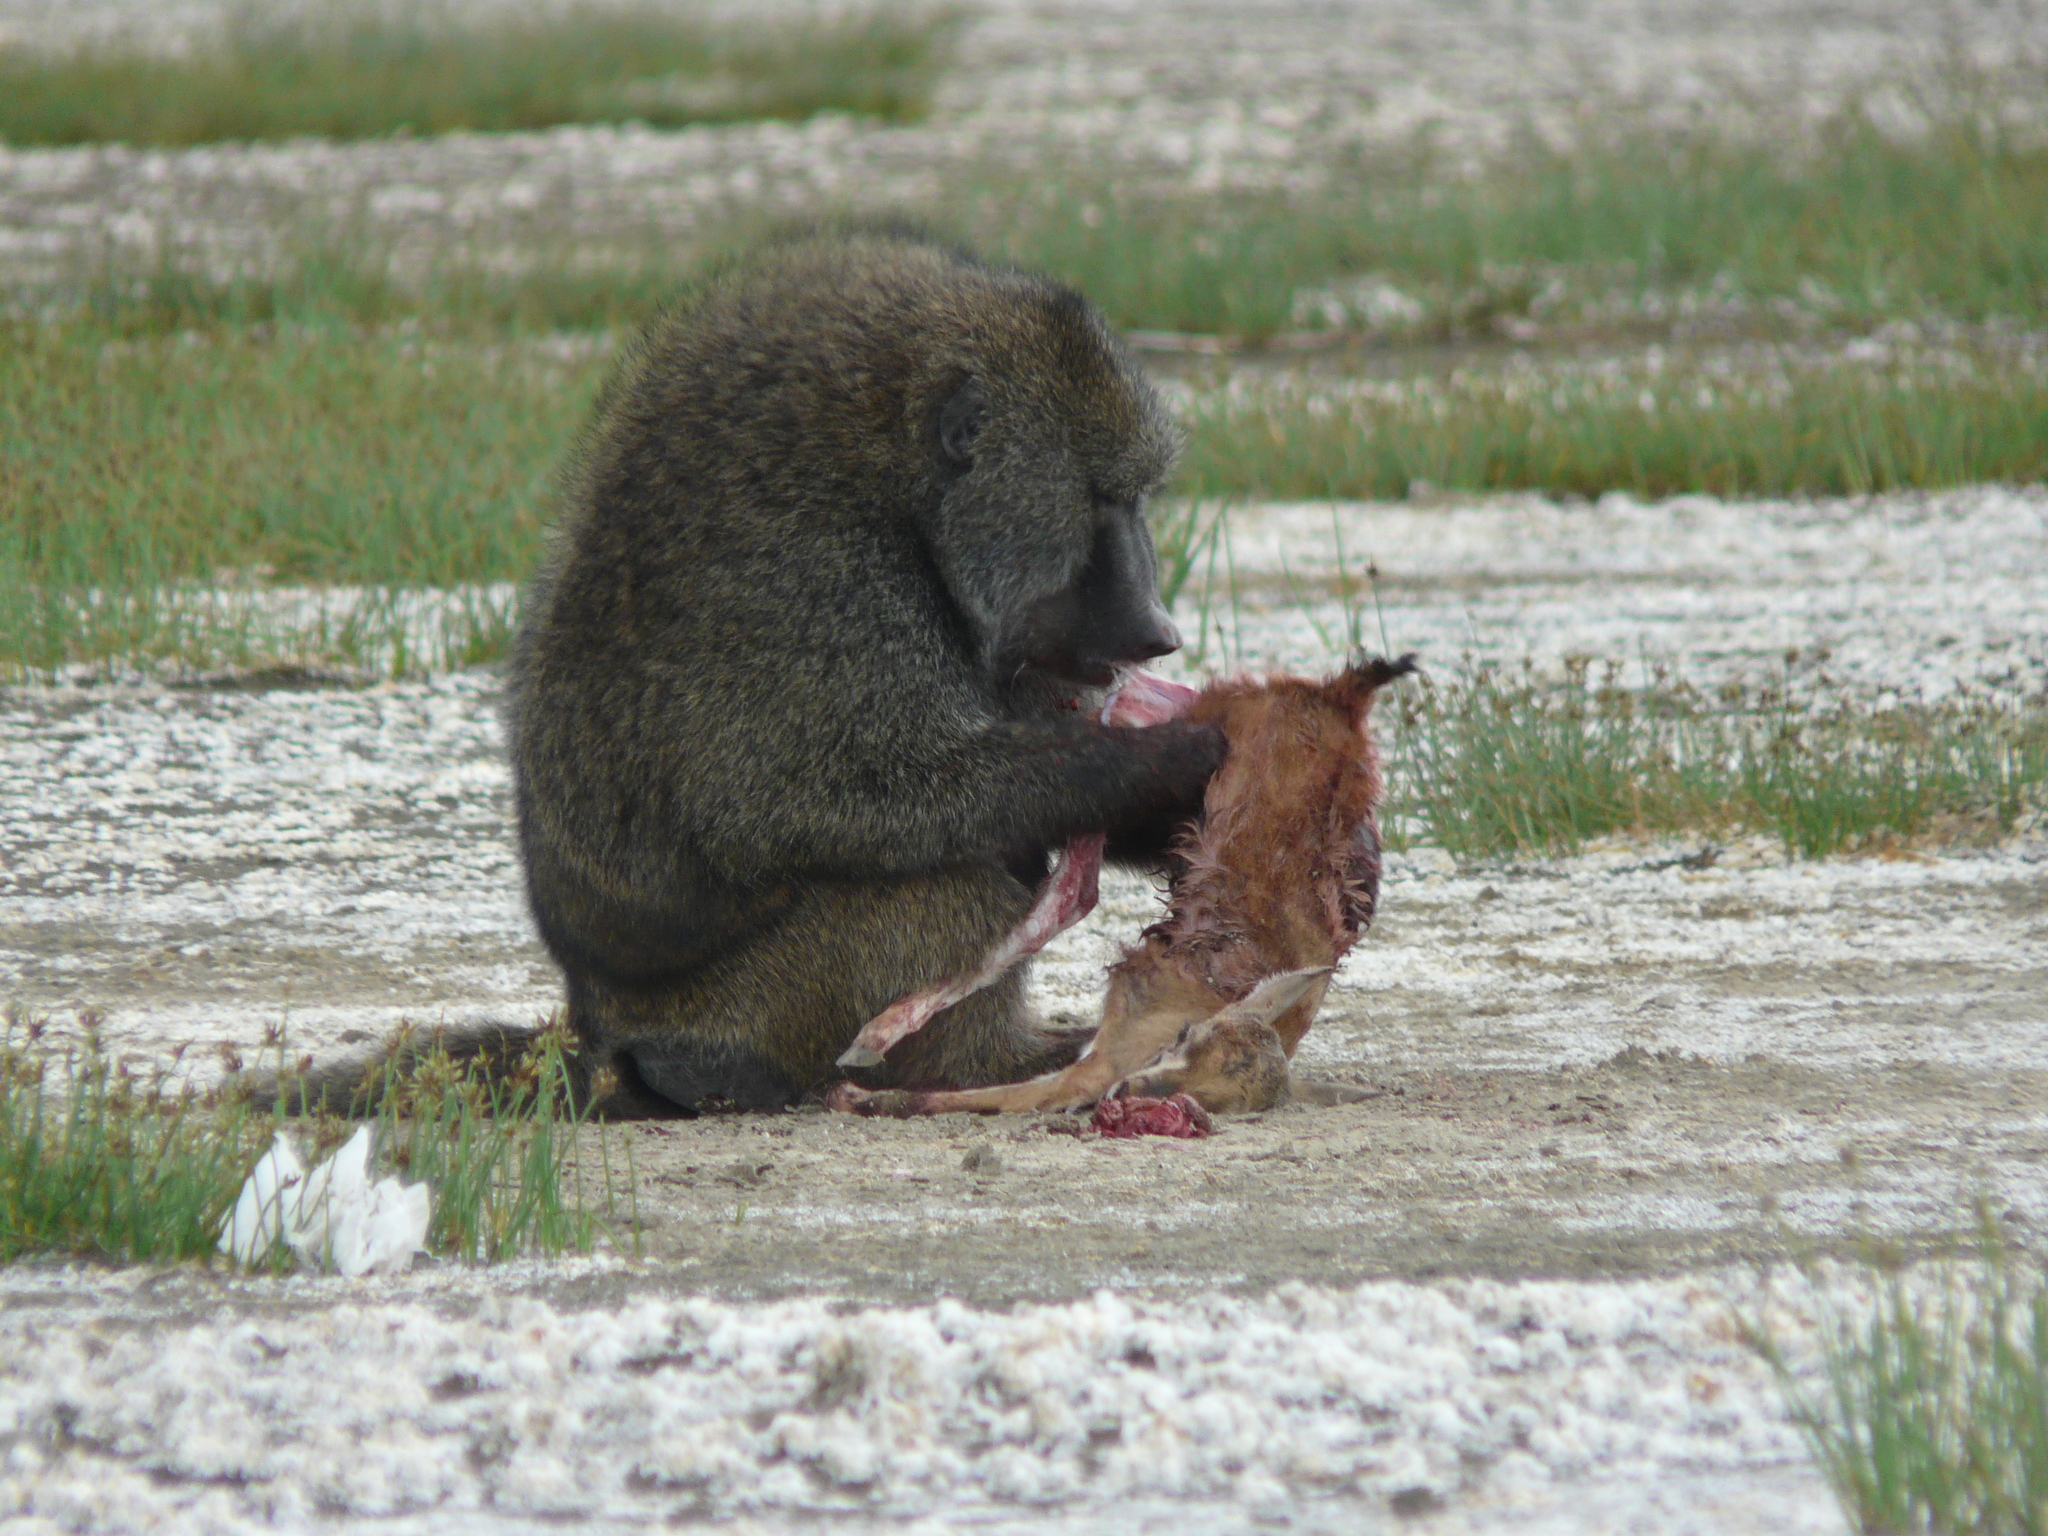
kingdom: Animalia
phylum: Chordata
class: Mammalia
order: Primates
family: Cercopithecidae
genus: Papio
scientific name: Papio anubis
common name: Olive baboon
